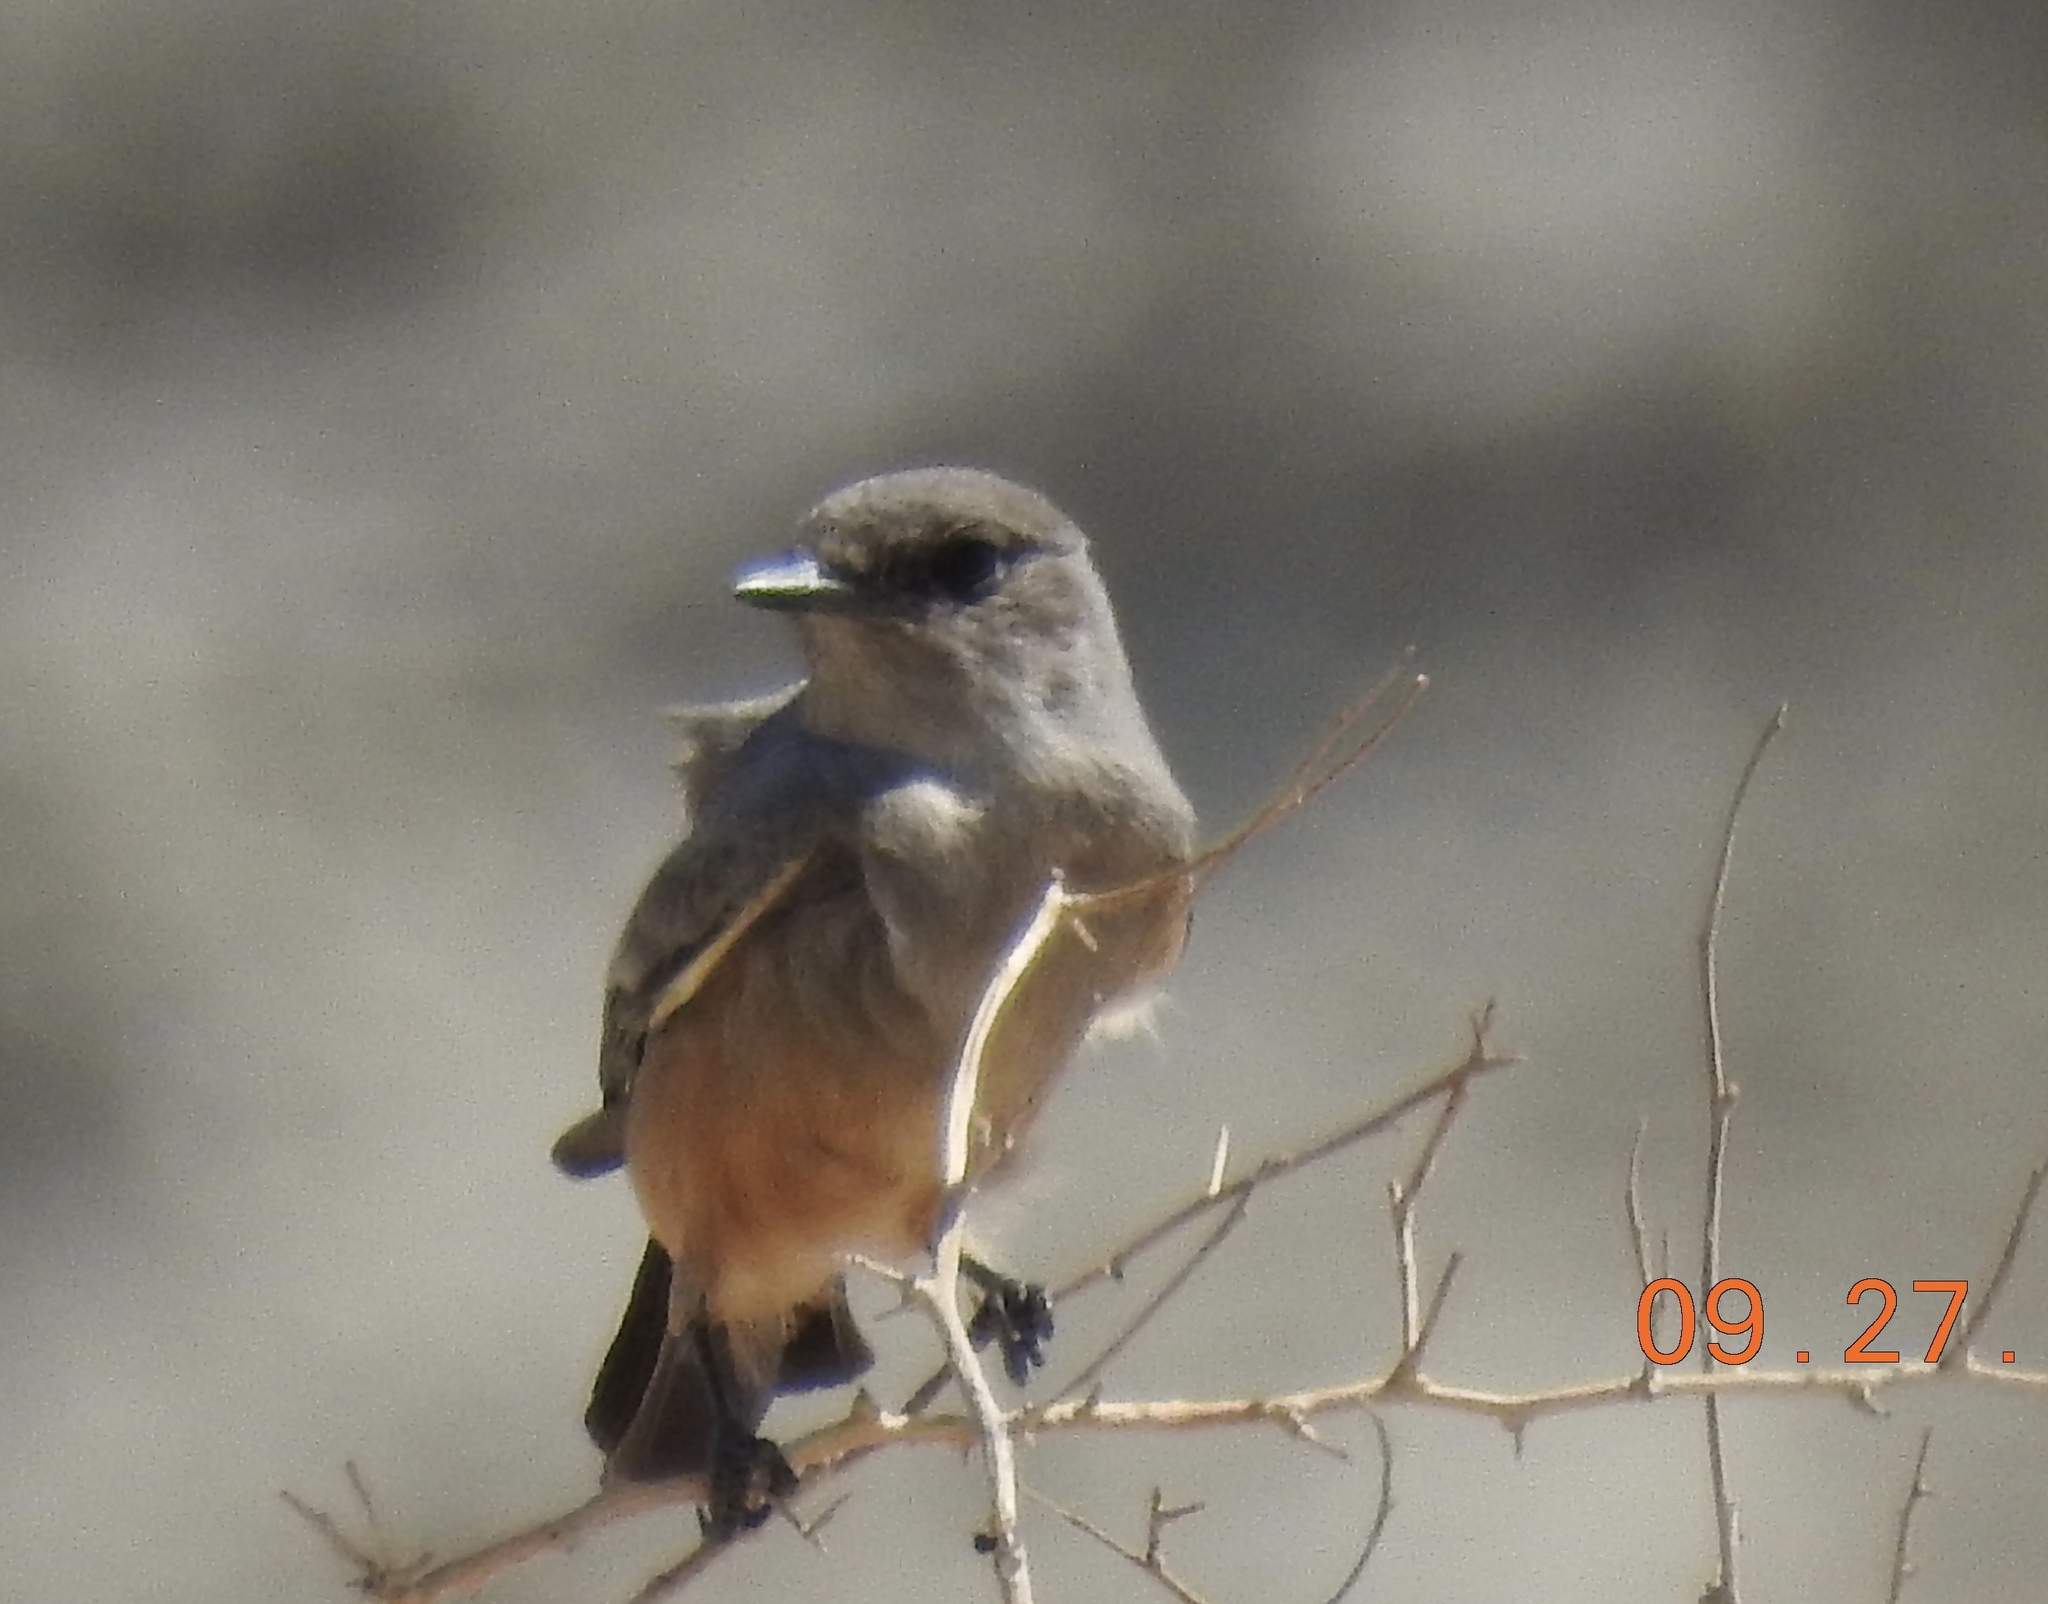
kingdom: Animalia
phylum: Chordata
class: Aves
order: Passeriformes
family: Tyrannidae
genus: Sayornis
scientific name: Sayornis saya
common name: Say's phoebe
